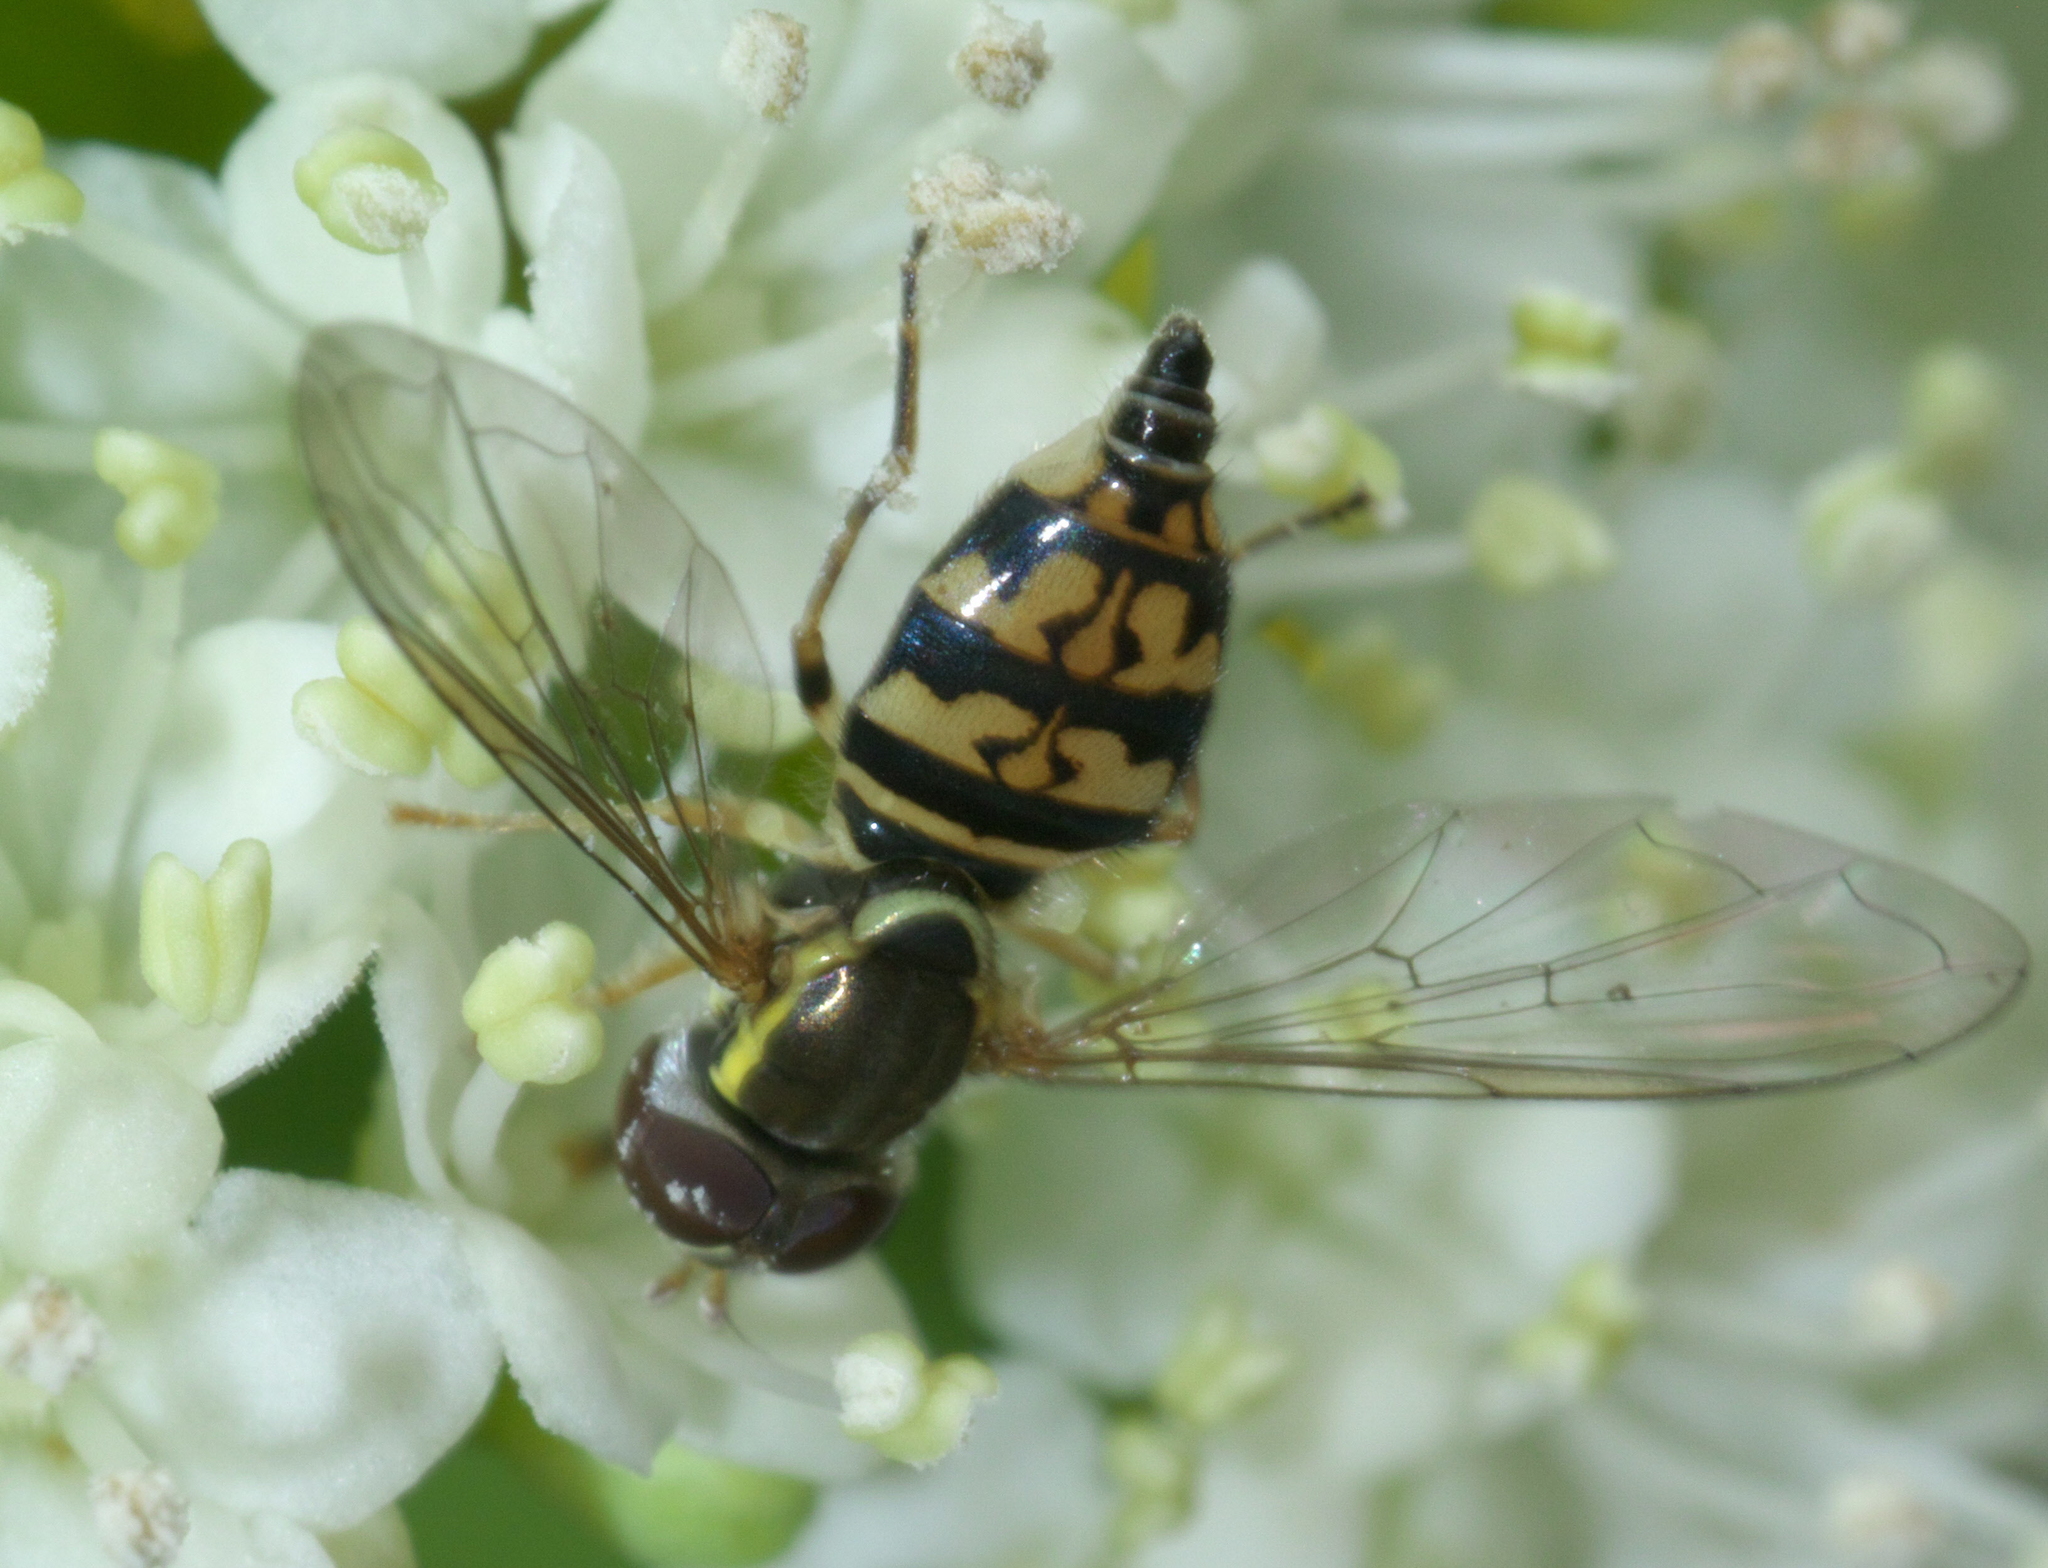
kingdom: Animalia
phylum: Arthropoda
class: Insecta
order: Diptera
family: Syrphidae
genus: Toxomerus
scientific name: Toxomerus geminatus
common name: Eastern calligrapher
